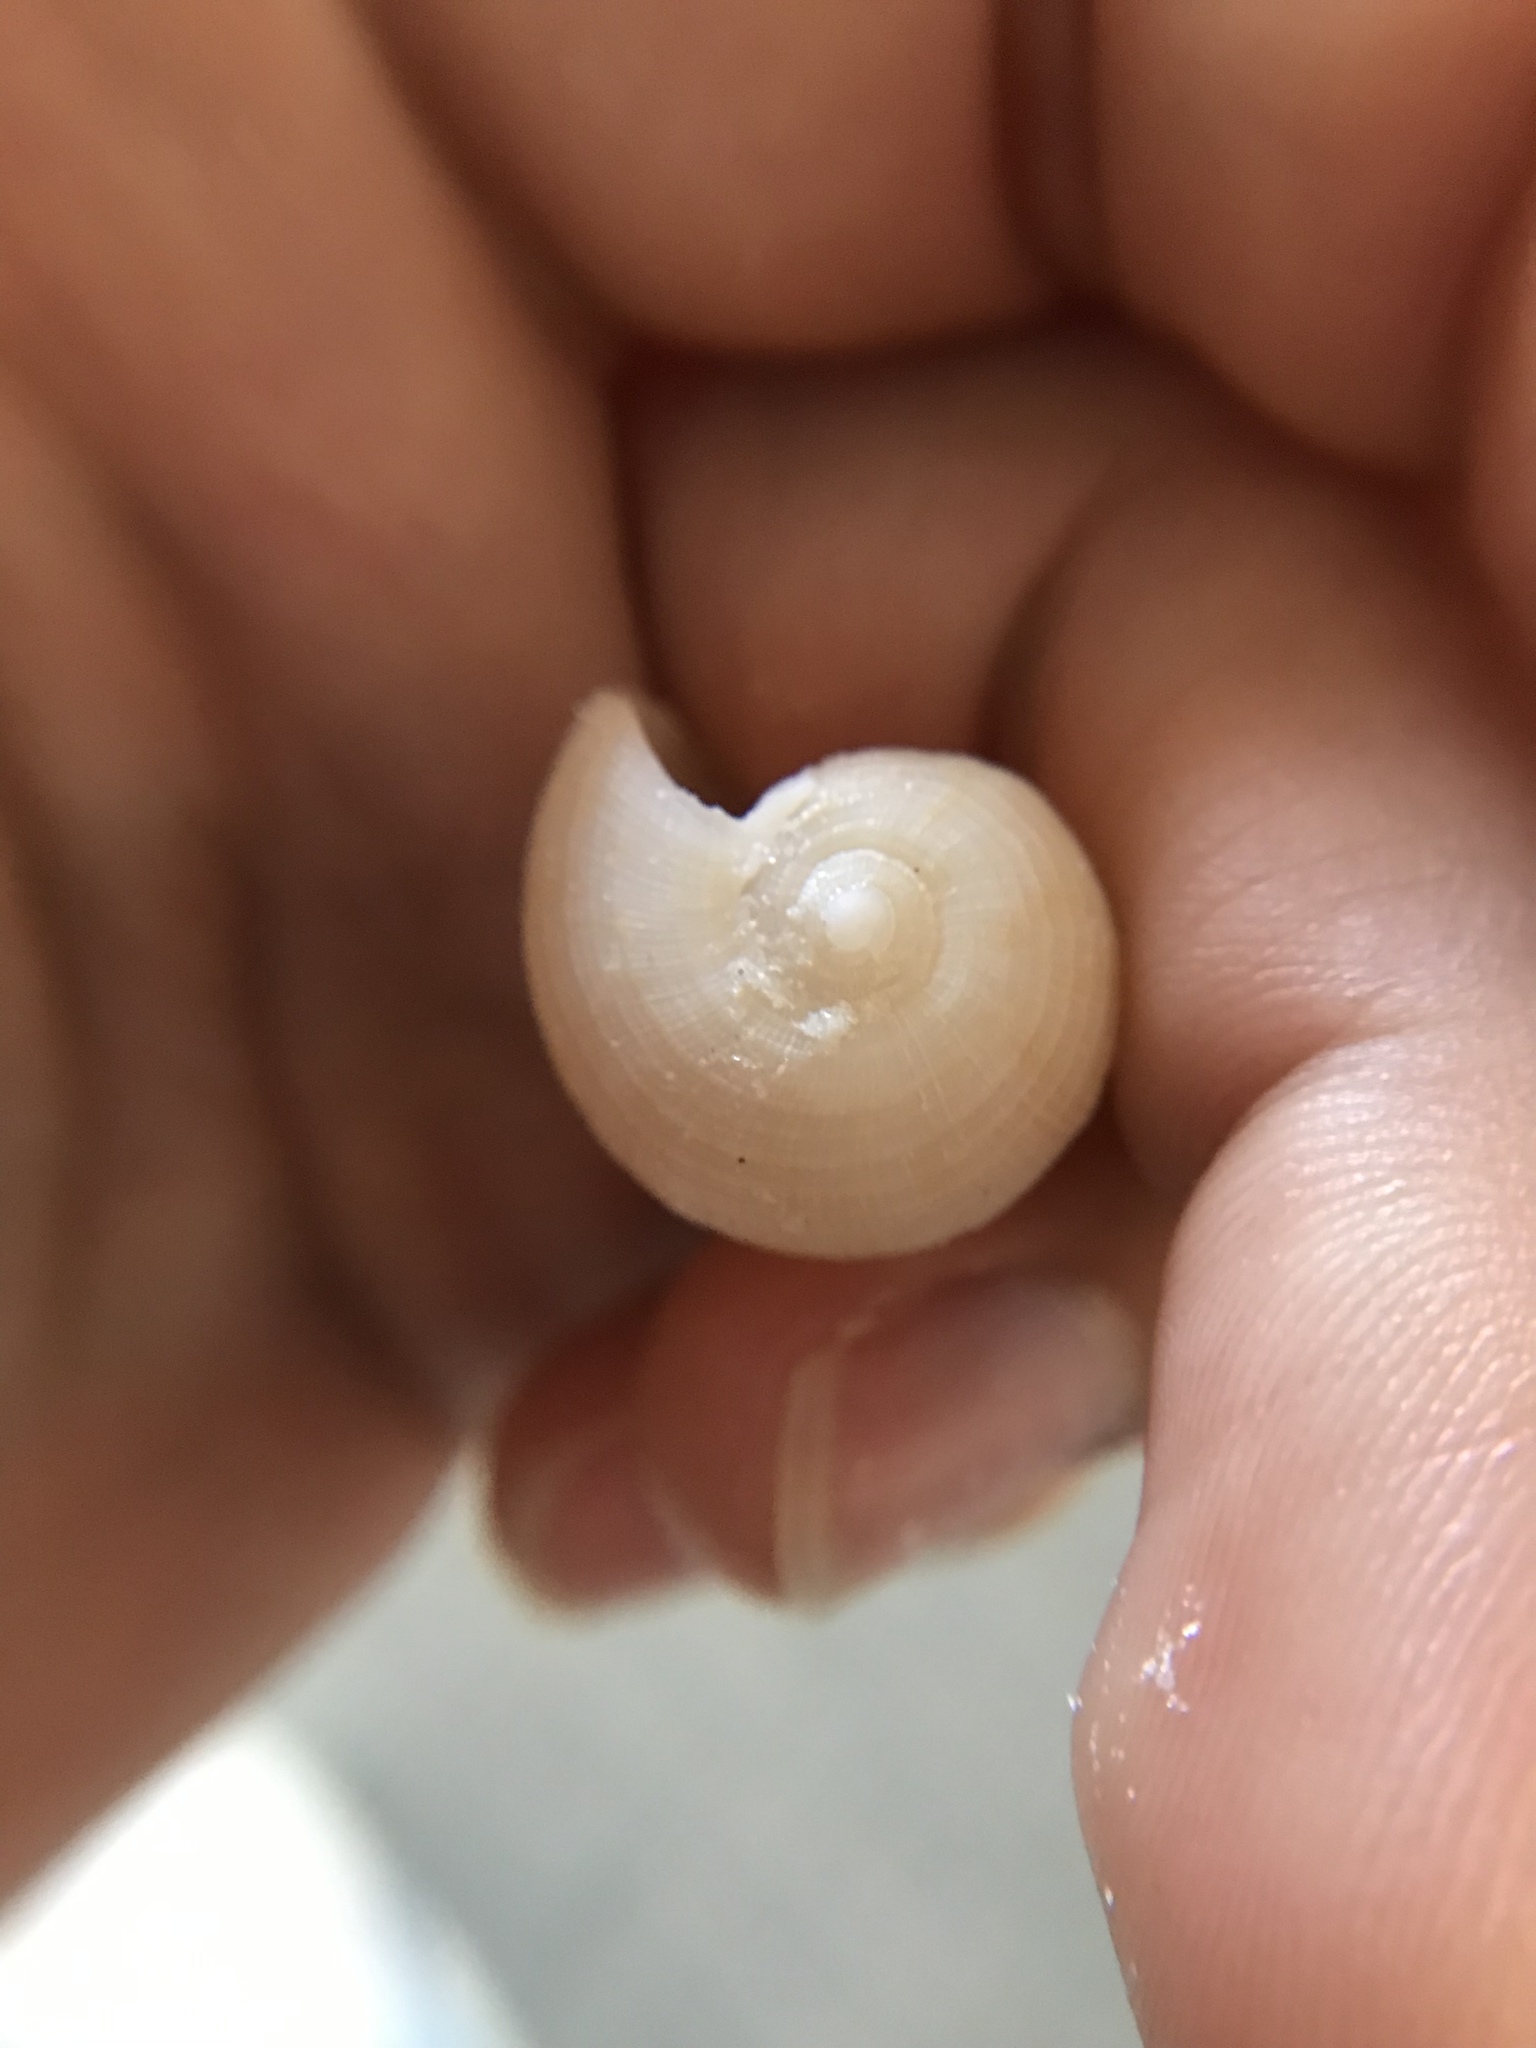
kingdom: Animalia
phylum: Mollusca
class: Gastropoda
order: Littorinimorpha
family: Ficidae
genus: Ficus
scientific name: Ficus papyratia
